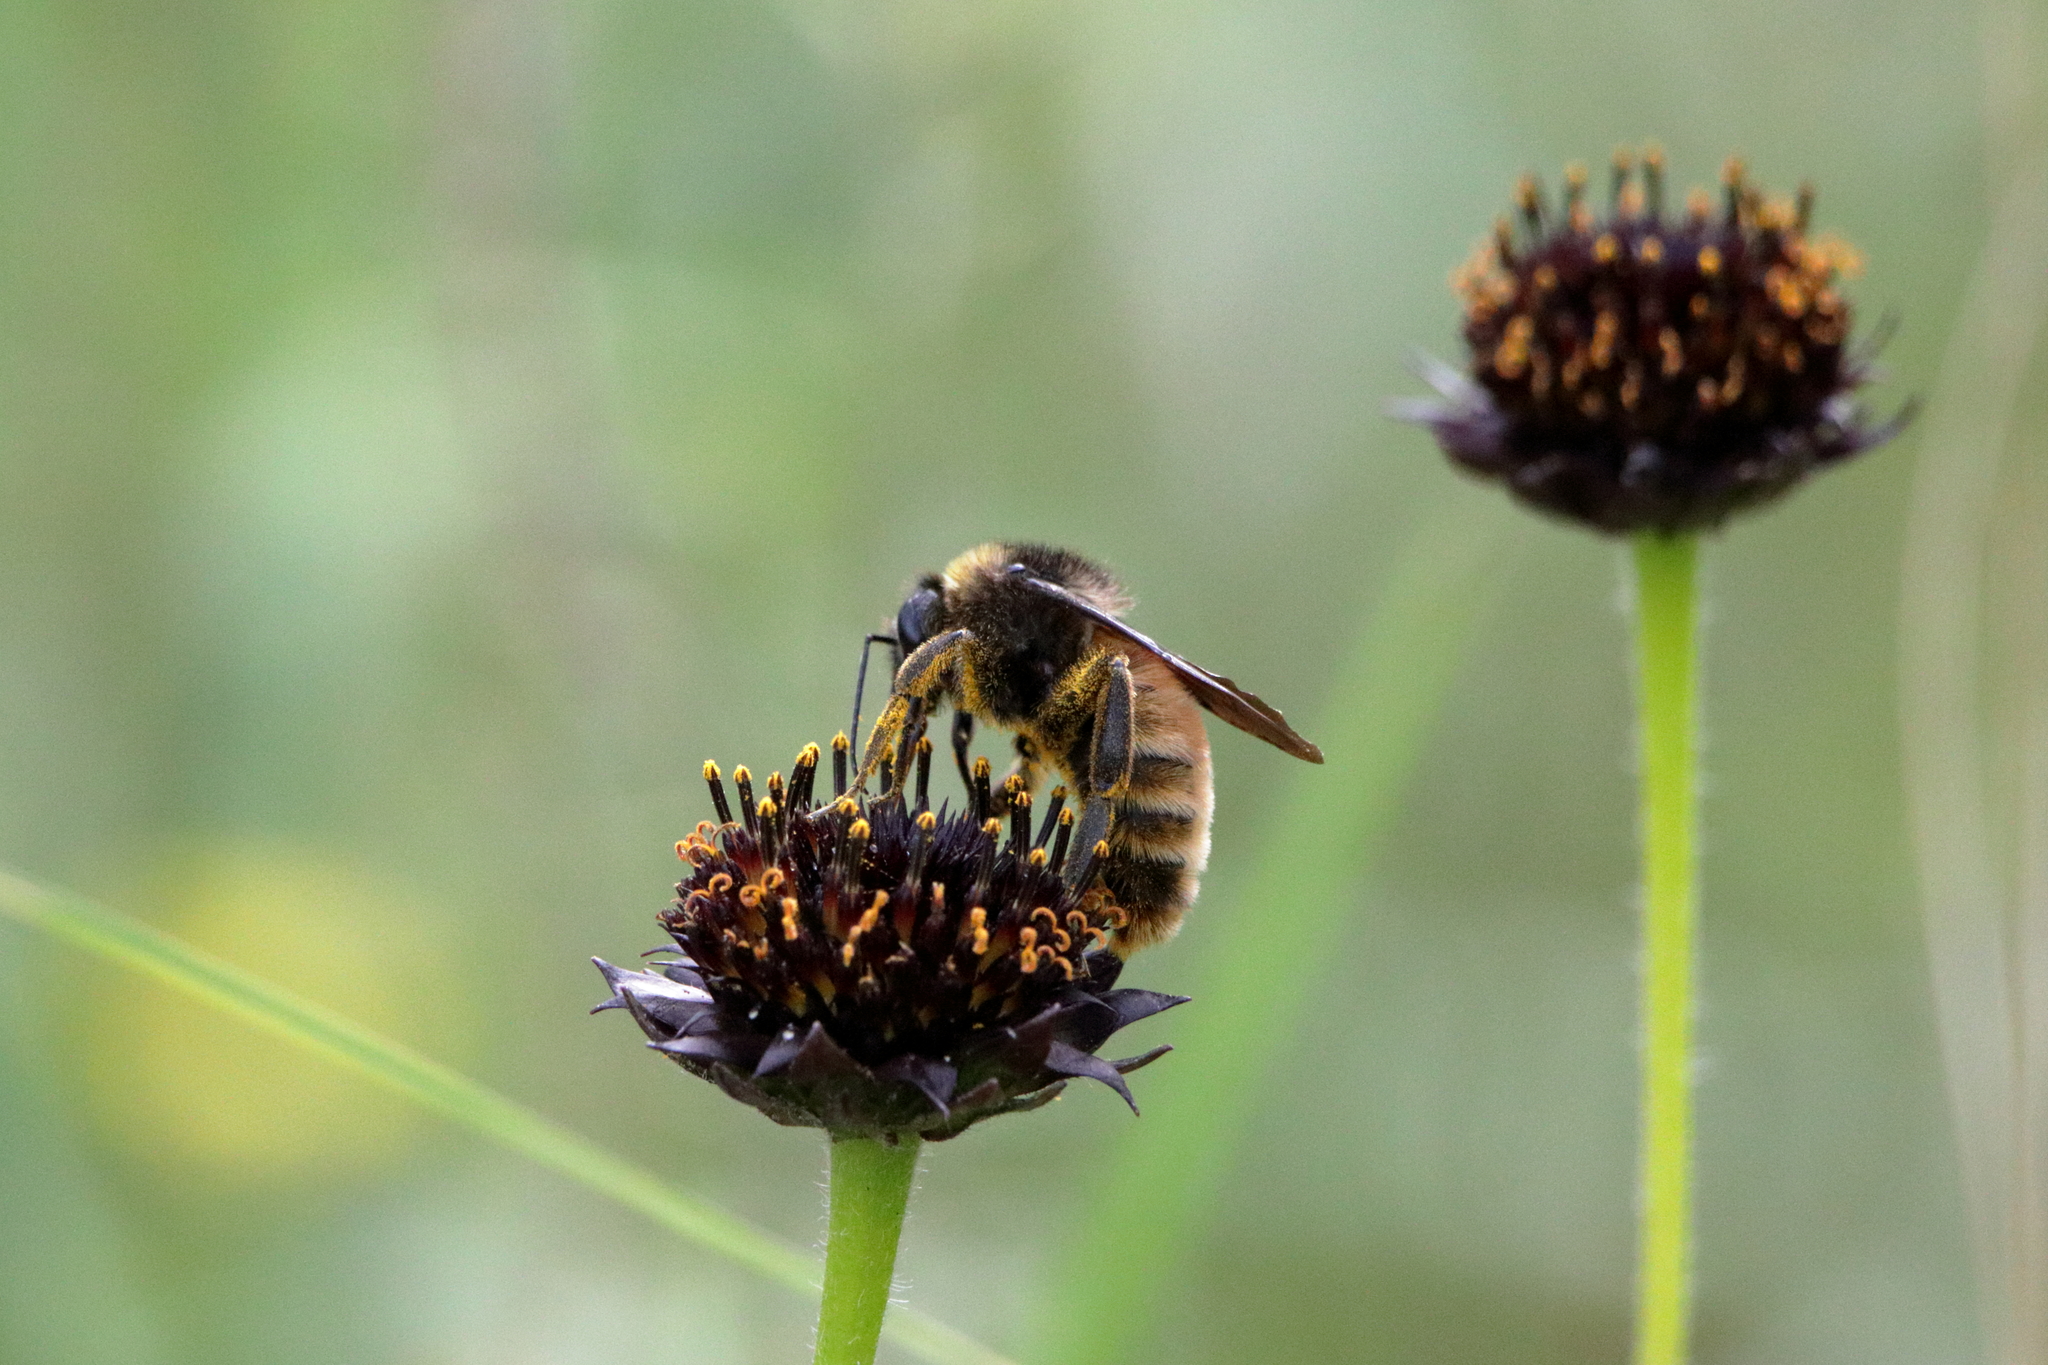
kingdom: Animalia
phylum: Arthropoda
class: Insecta
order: Hymenoptera
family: Apidae
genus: Bombus
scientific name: Bombus pensylvanicus
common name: Bumble bee
